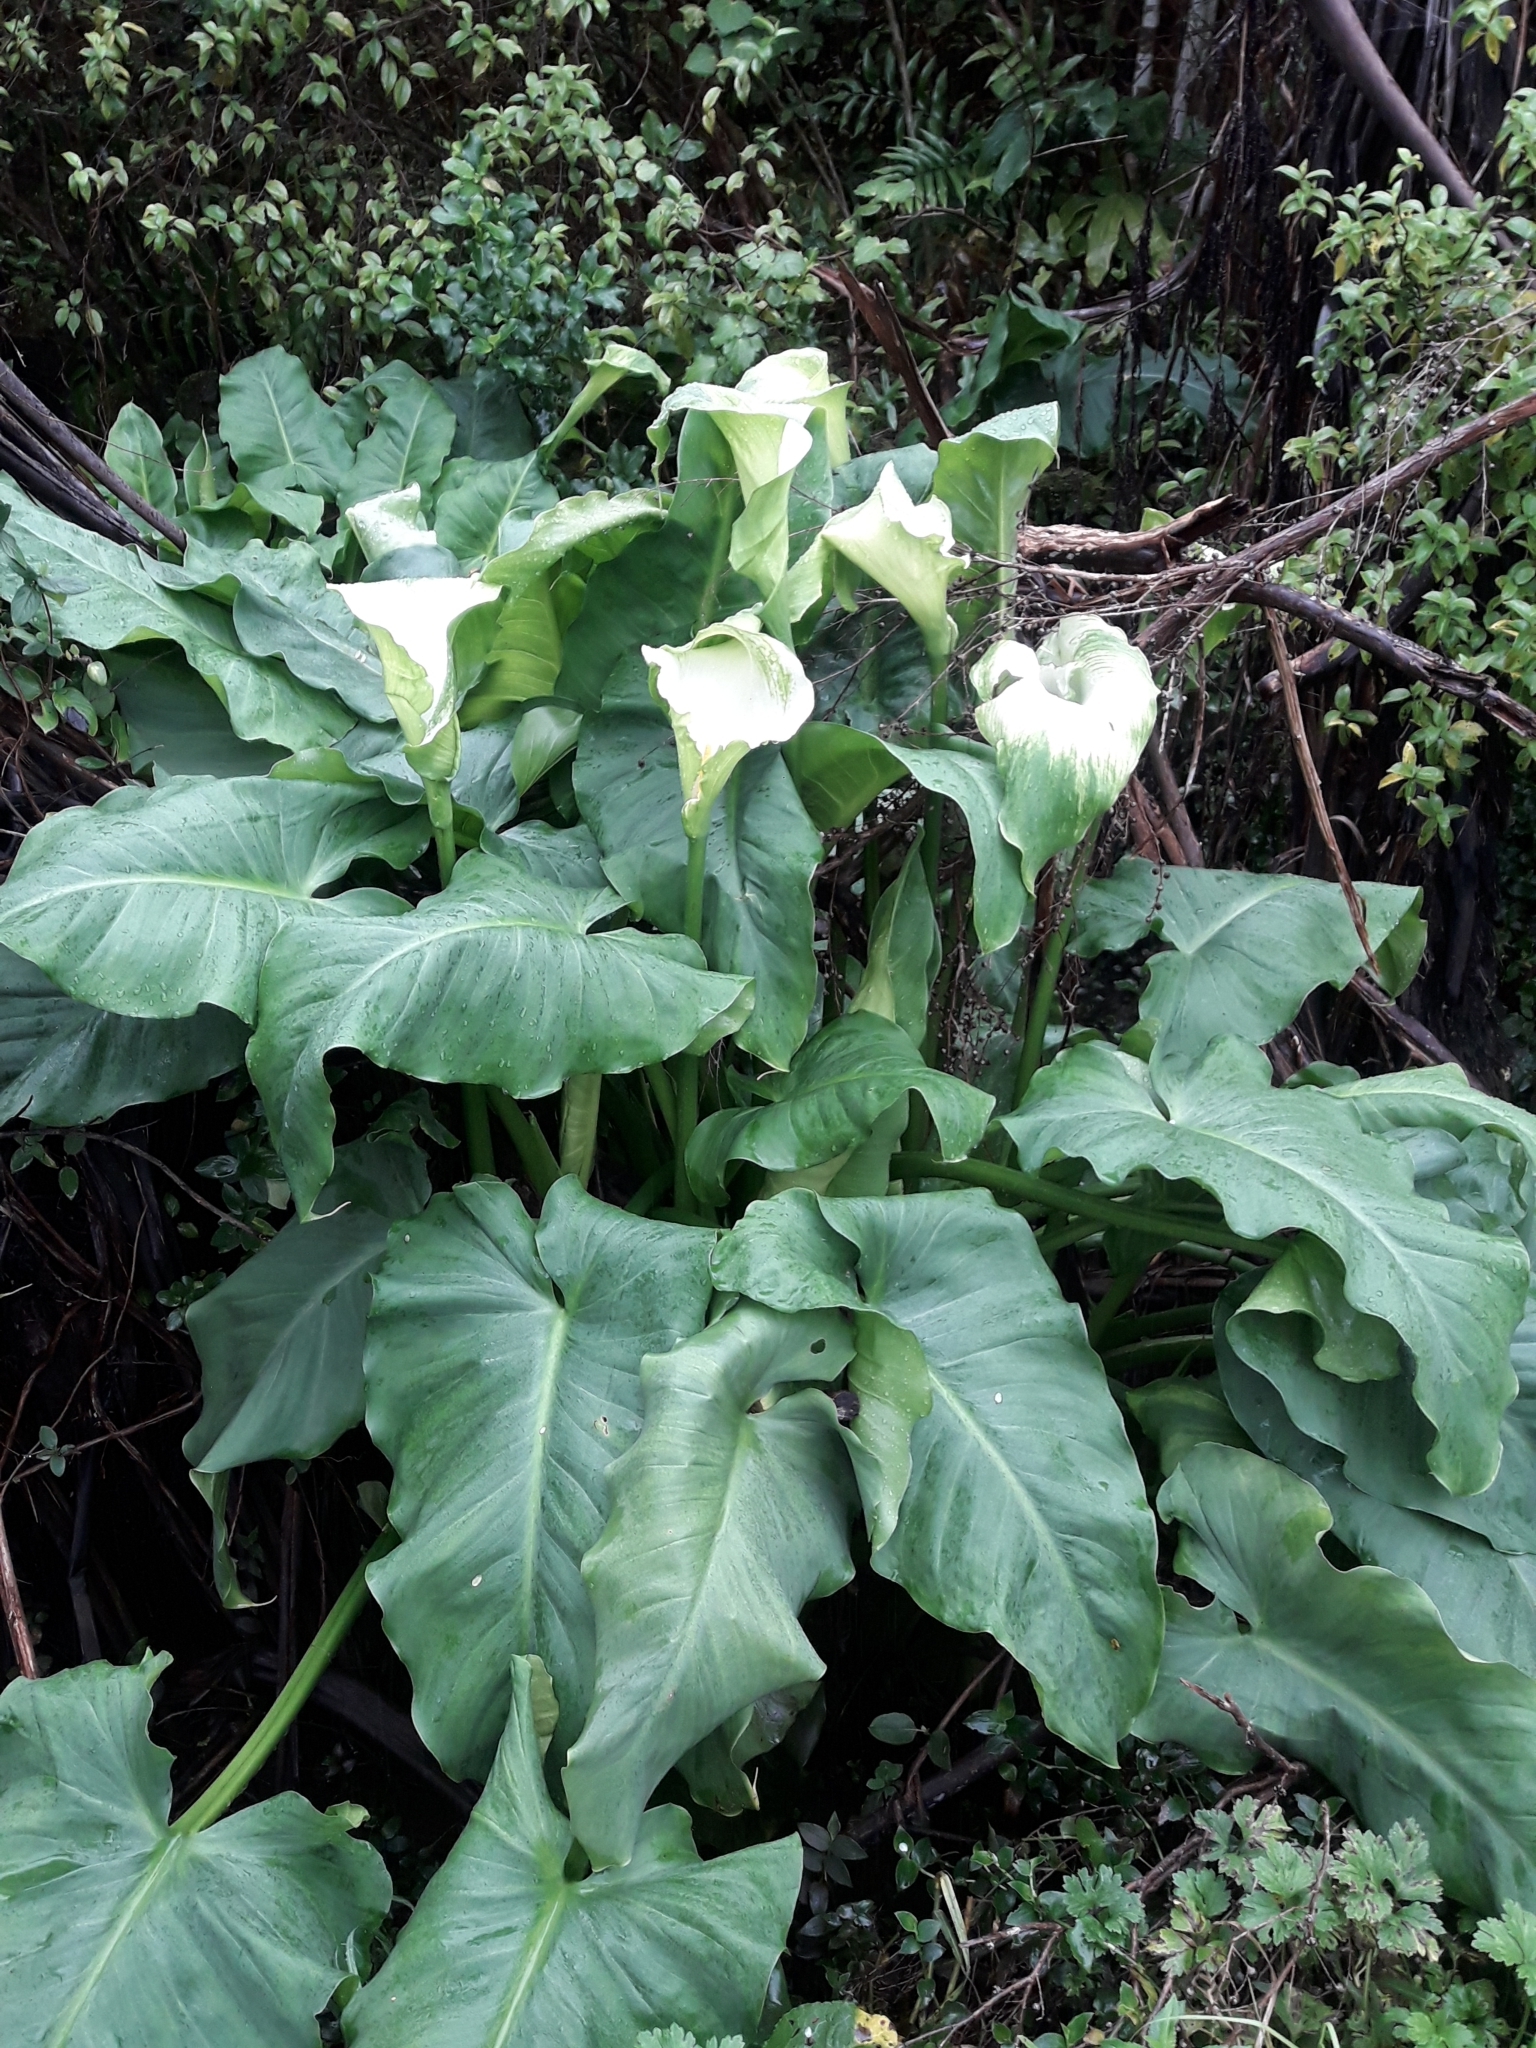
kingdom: Plantae
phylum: Tracheophyta
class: Liliopsida
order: Alismatales
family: Araceae
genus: Zantedeschia
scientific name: Zantedeschia aethiopica
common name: Altar-lily
